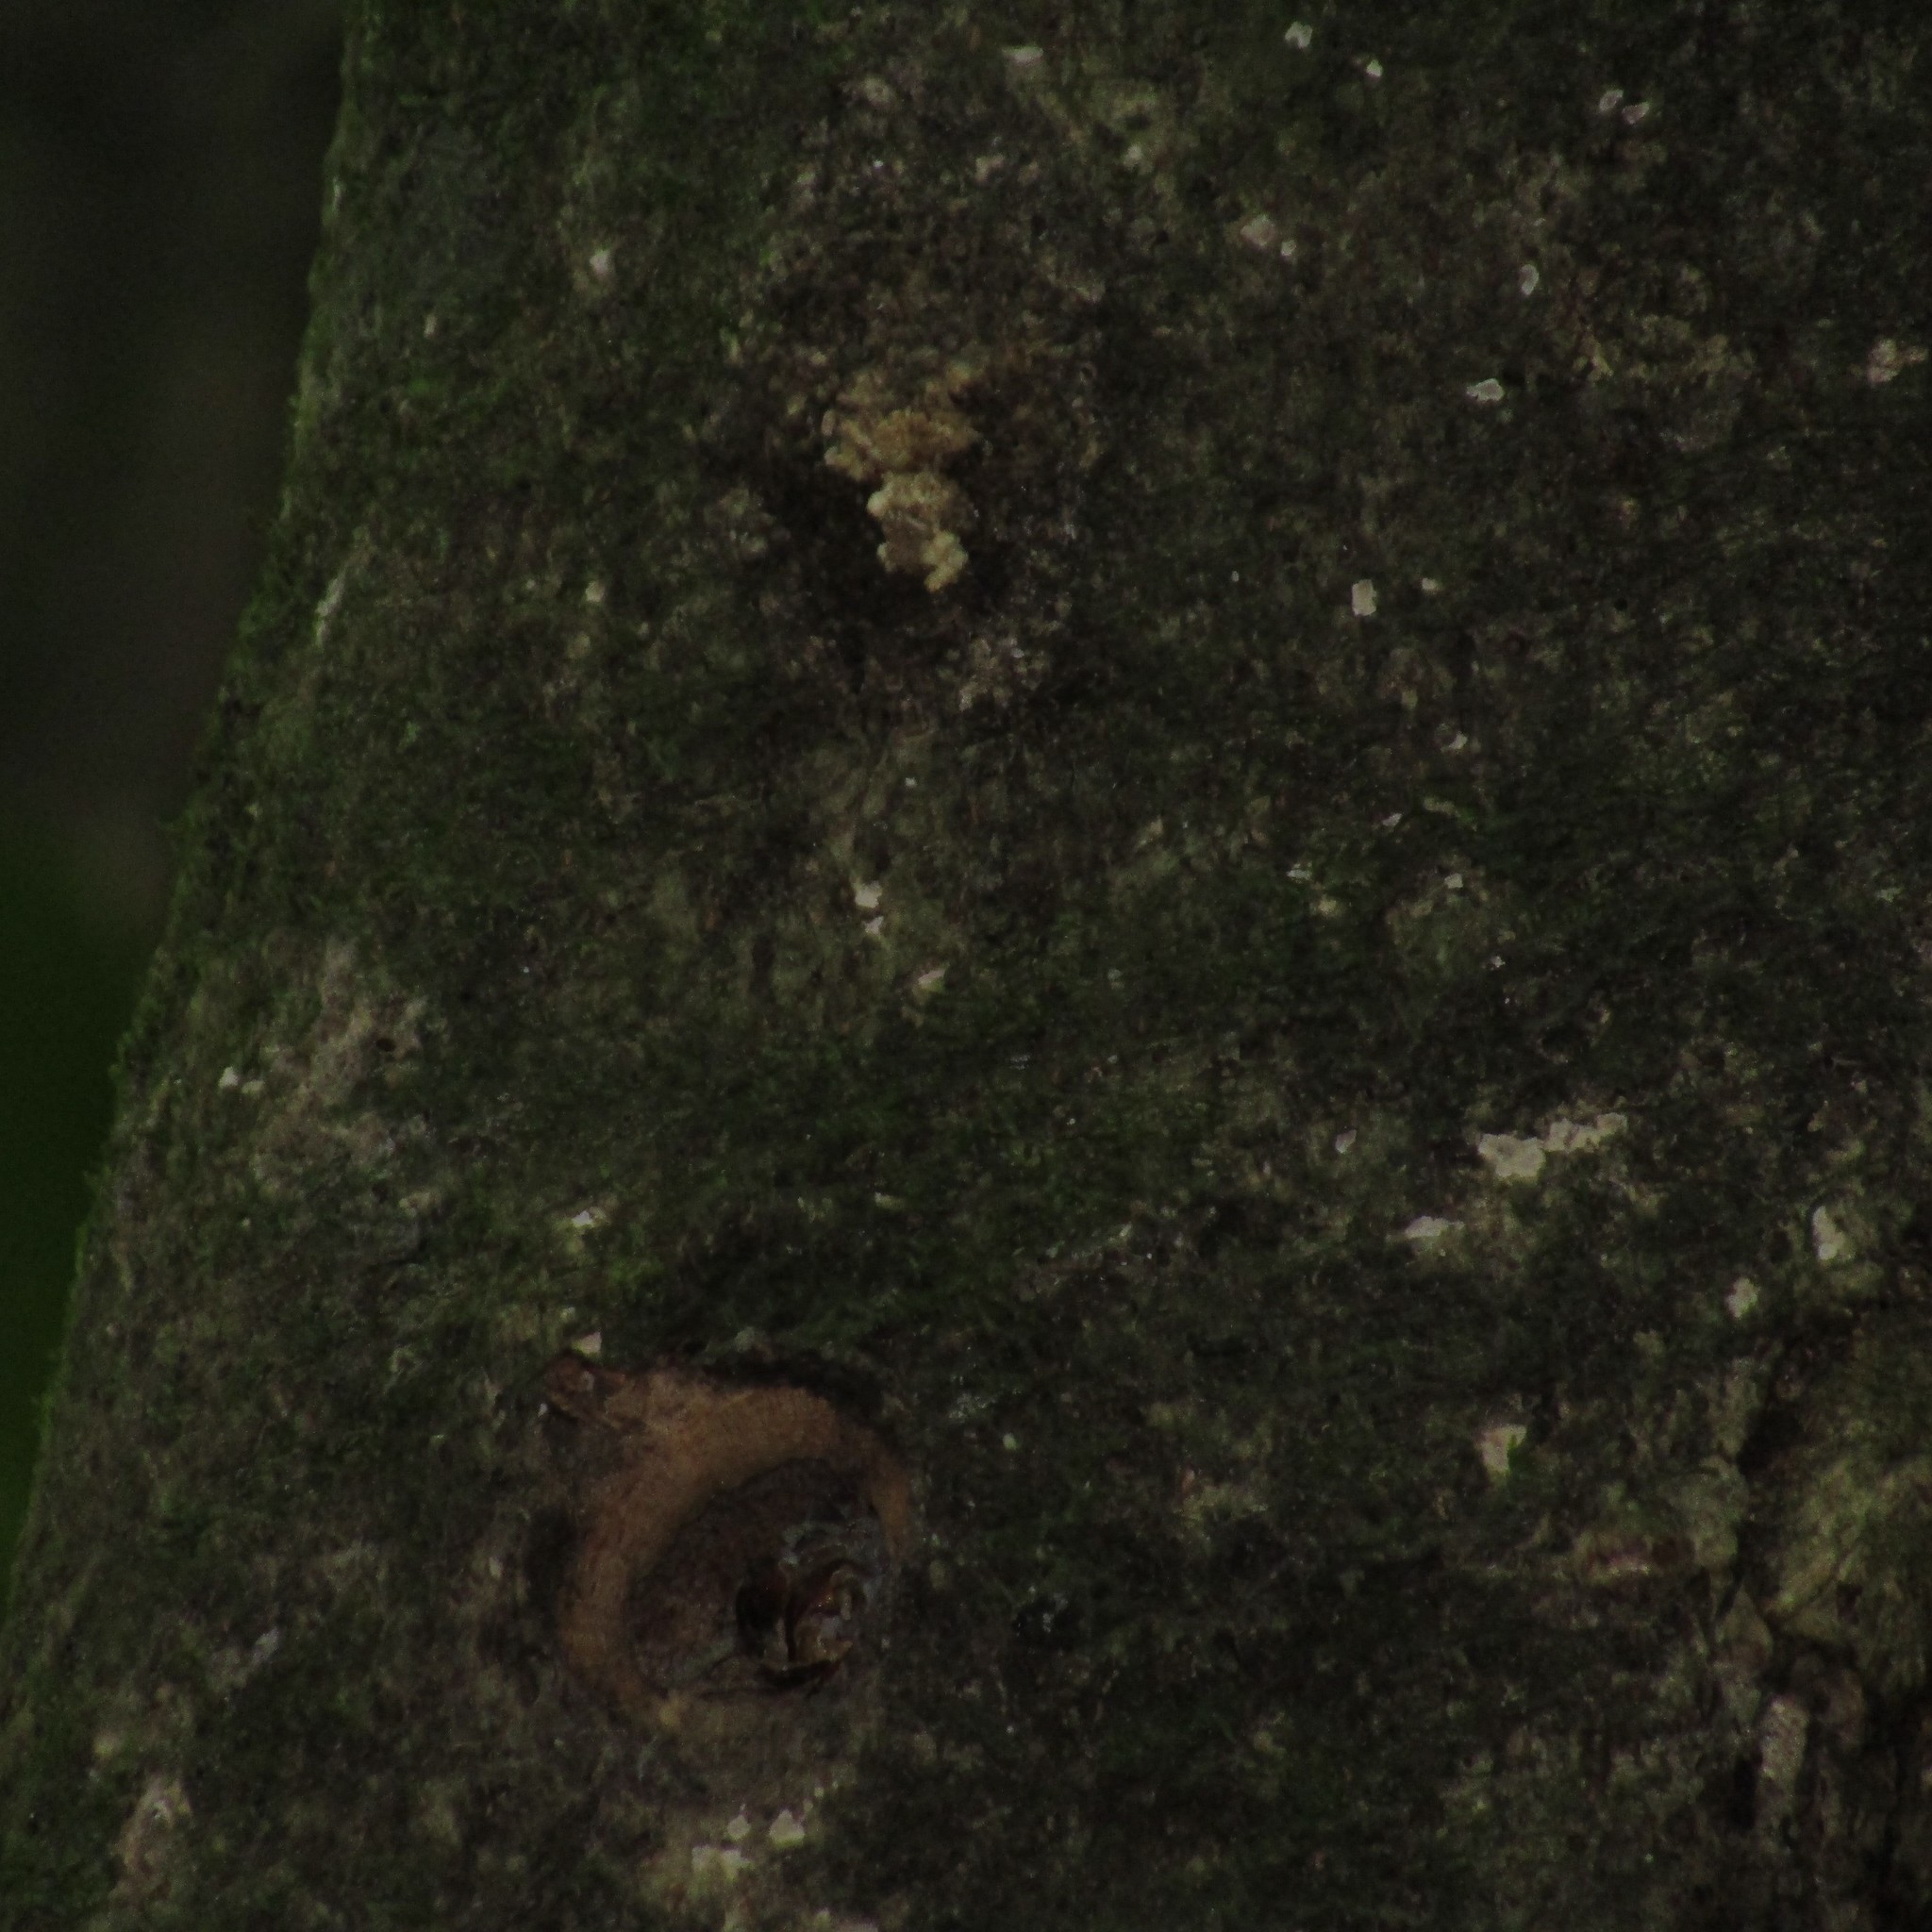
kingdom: Animalia
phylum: Arthropoda
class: Insecta
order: Lepidoptera
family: Hepialidae
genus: Aenetus
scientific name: Aenetus virescens
